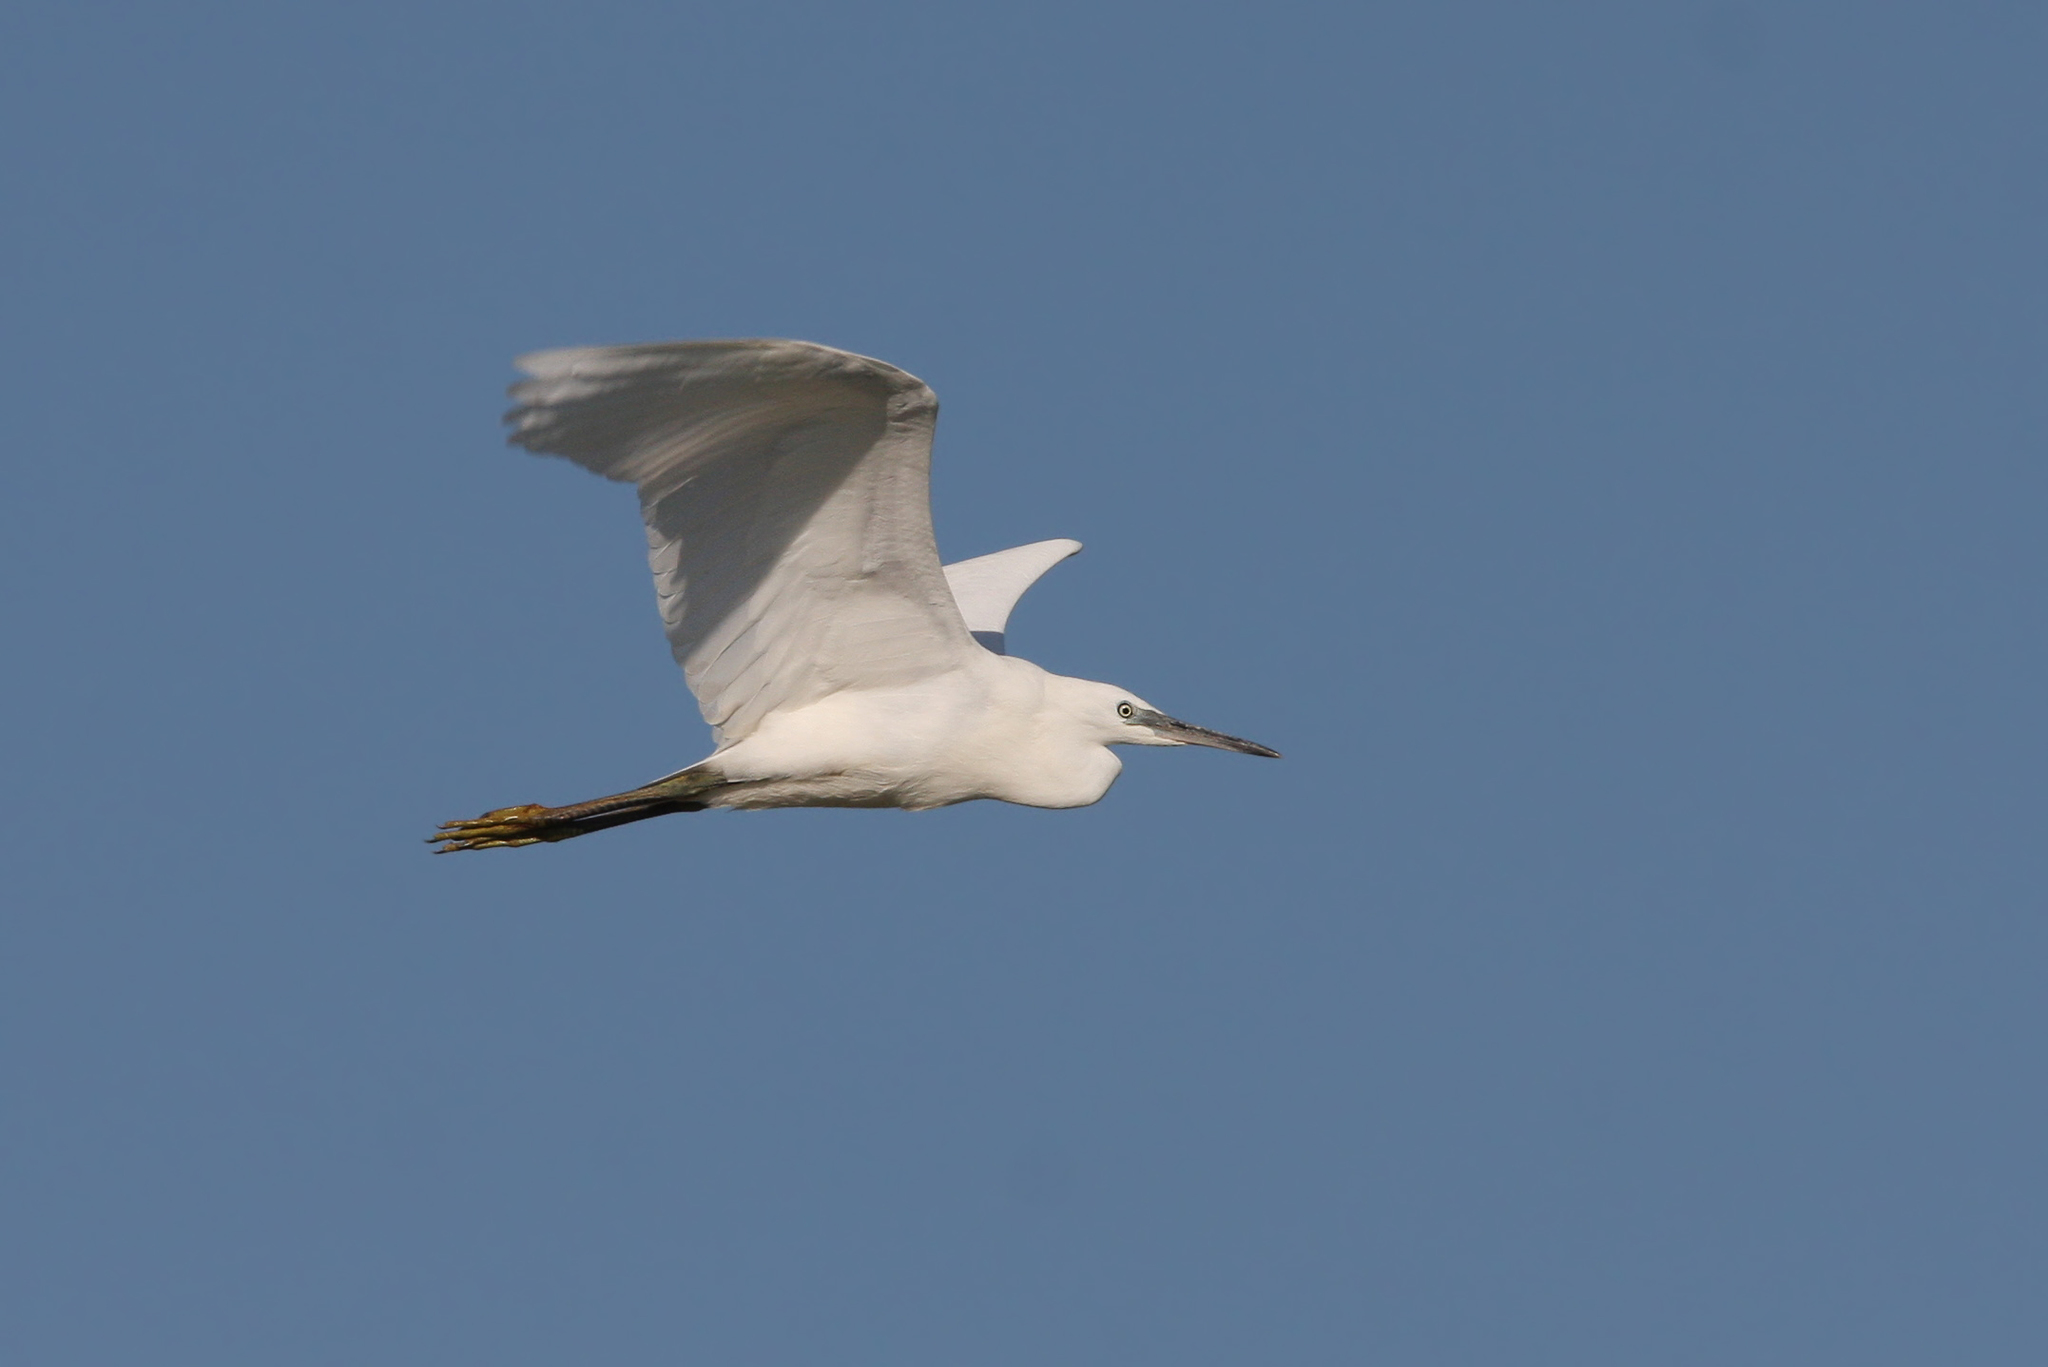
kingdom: Animalia
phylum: Chordata
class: Aves
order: Pelecaniformes
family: Ardeidae
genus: Egretta
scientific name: Egretta garzetta
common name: Little egret
